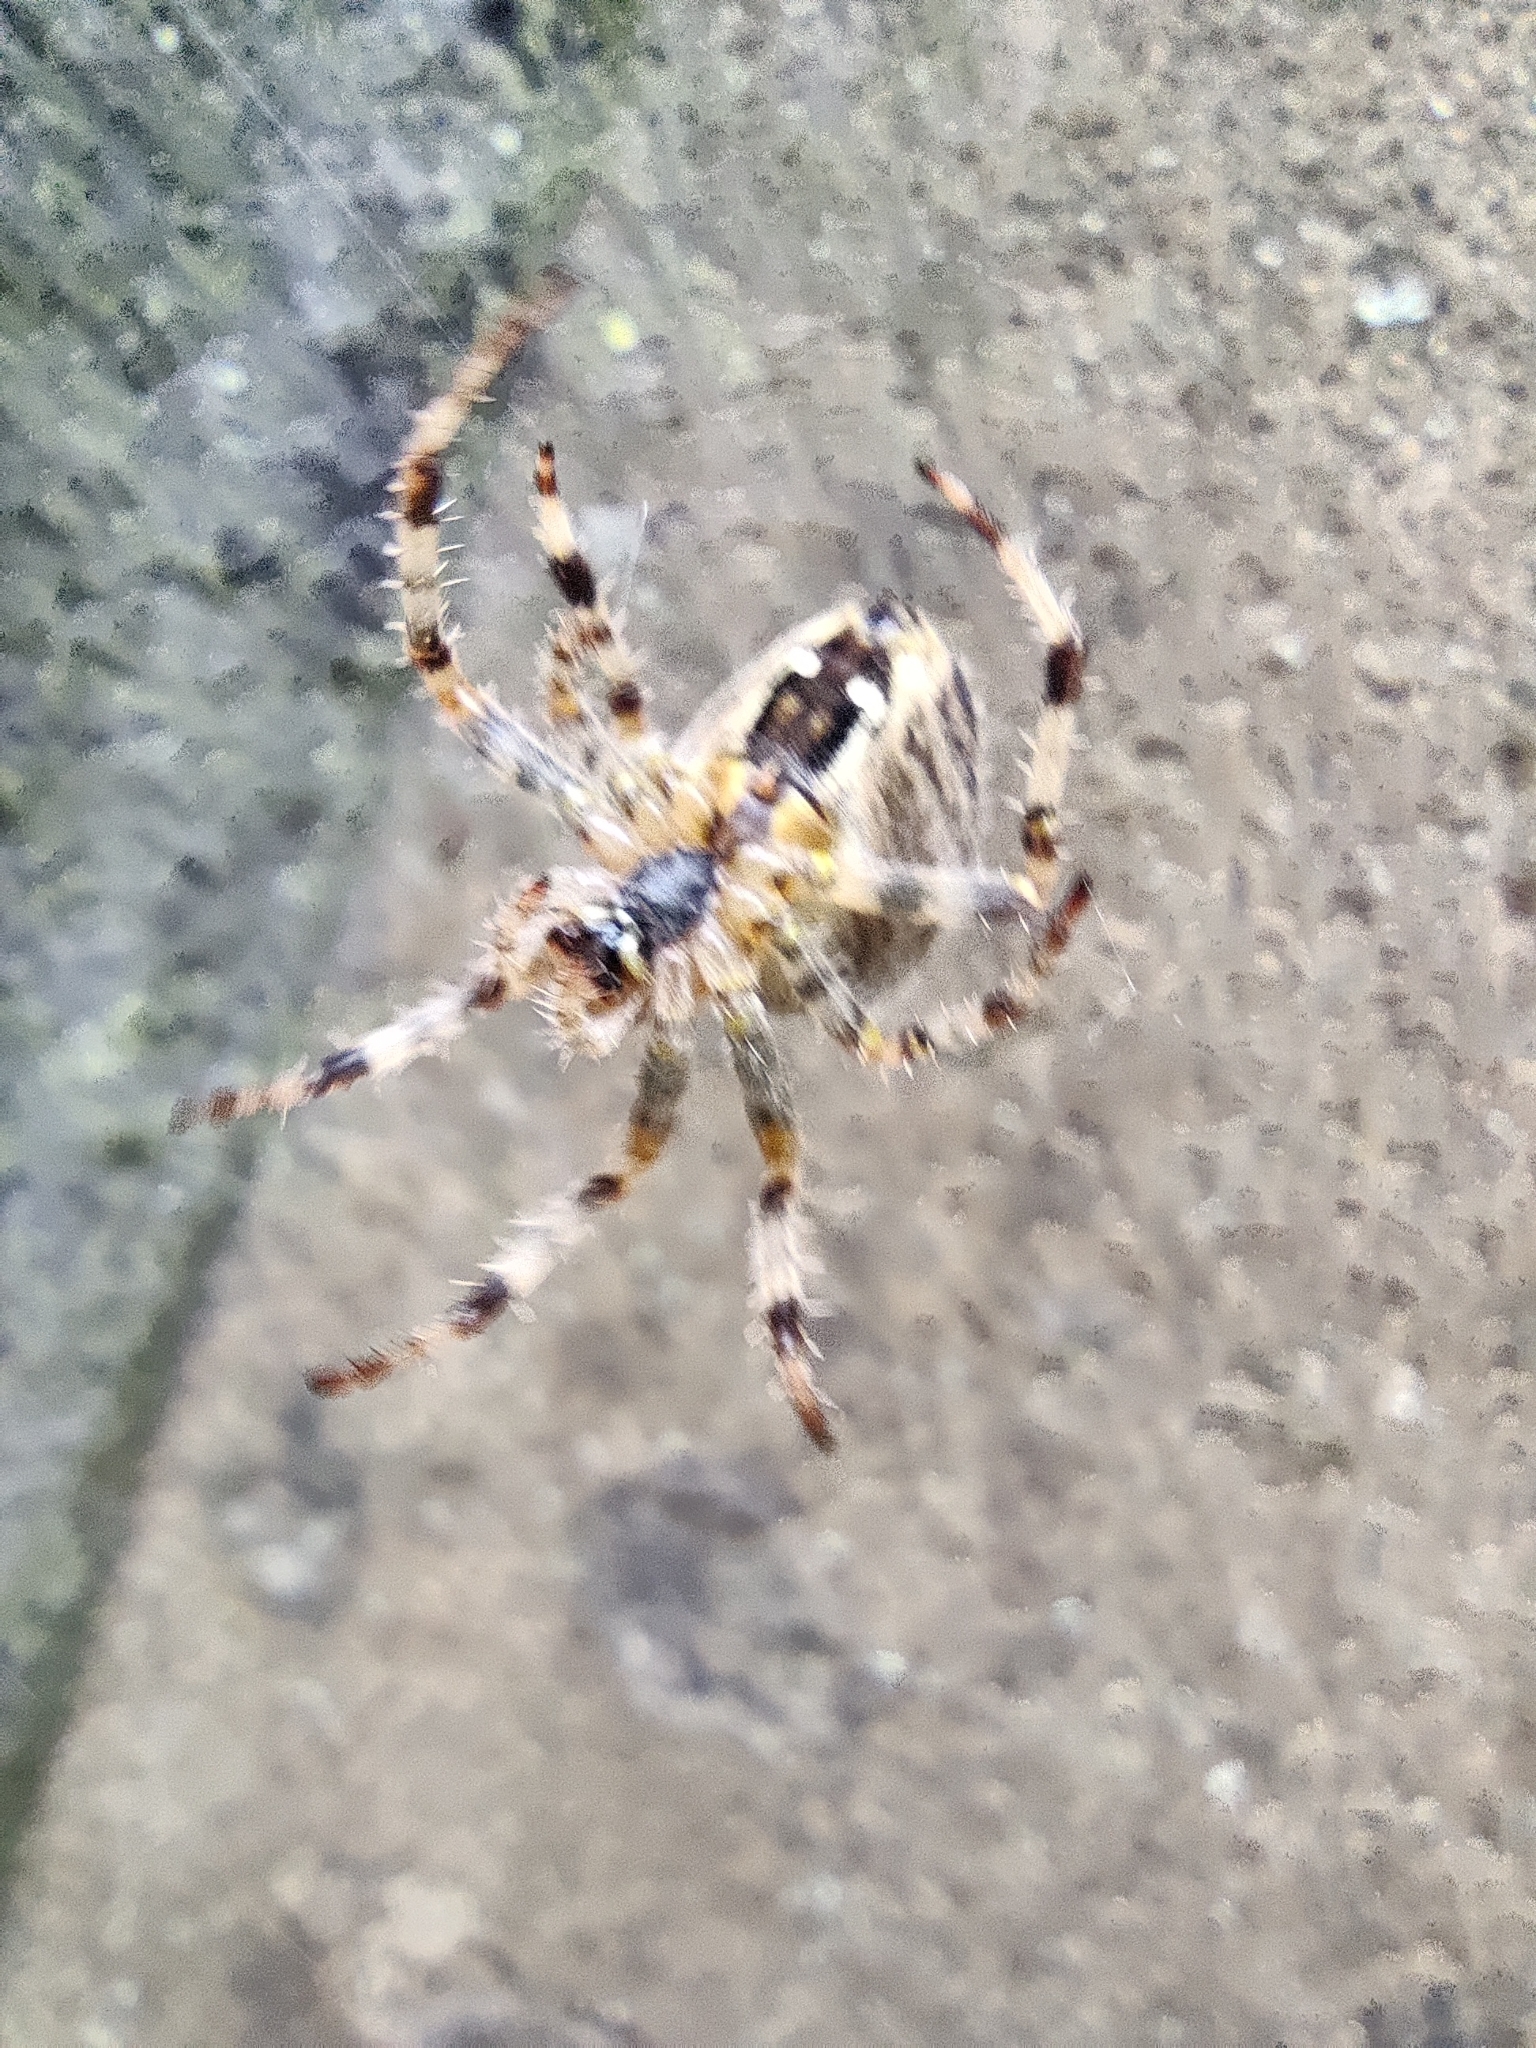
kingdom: Animalia
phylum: Arthropoda
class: Arachnida
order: Araneae
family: Araneidae
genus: Araneus
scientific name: Araneus diadematus
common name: Cross orbweaver
